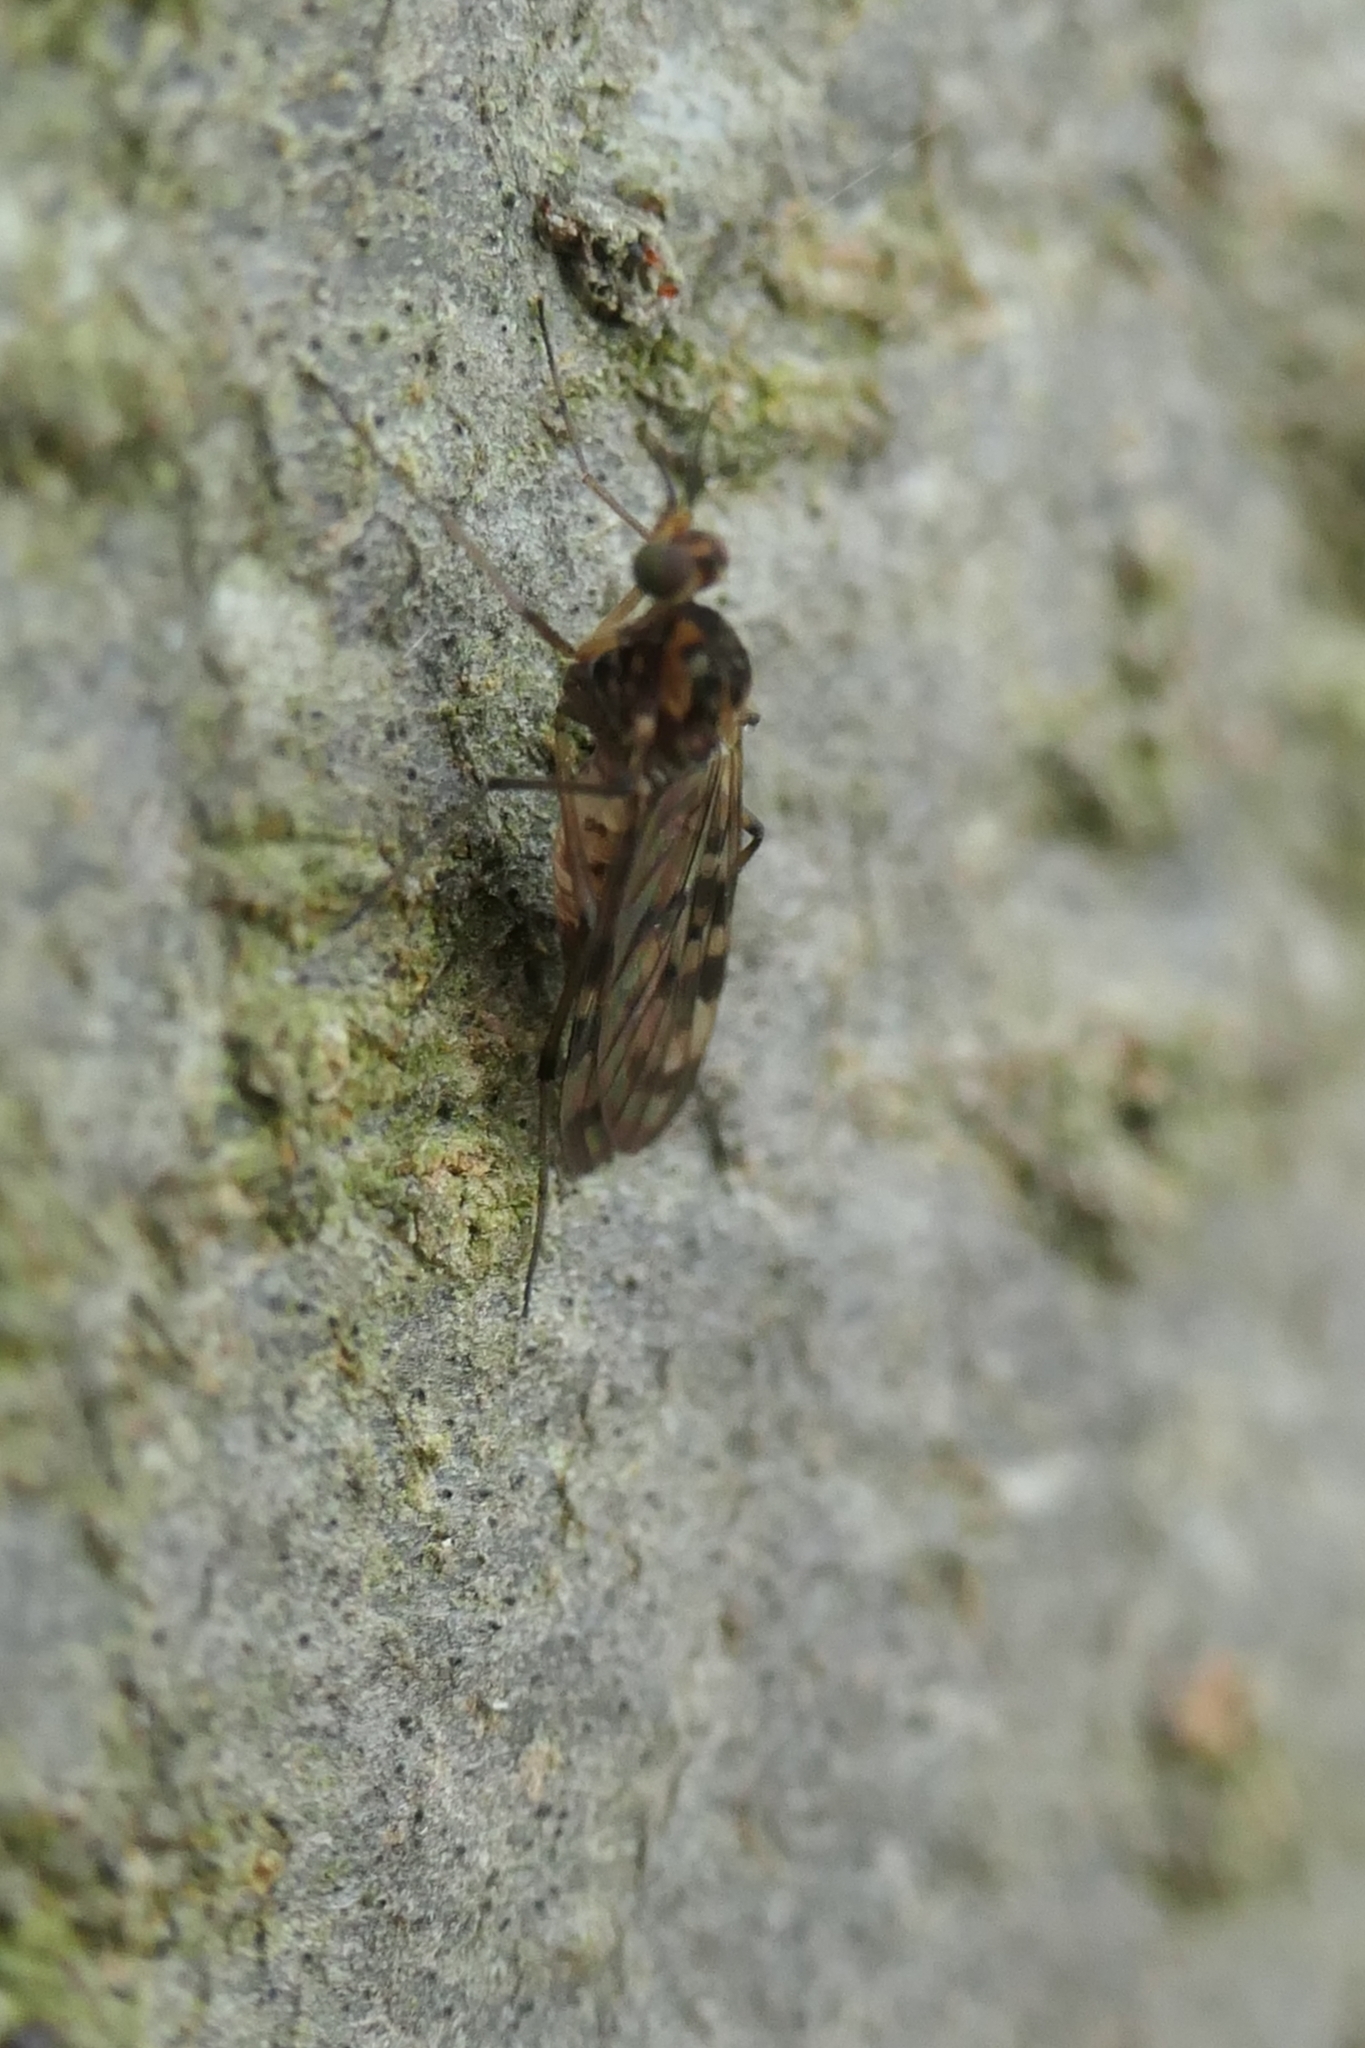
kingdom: Animalia
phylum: Arthropoda
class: Insecta
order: Diptera
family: Anisopodidae
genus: Sylvicola
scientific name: Sylvicola dubius
